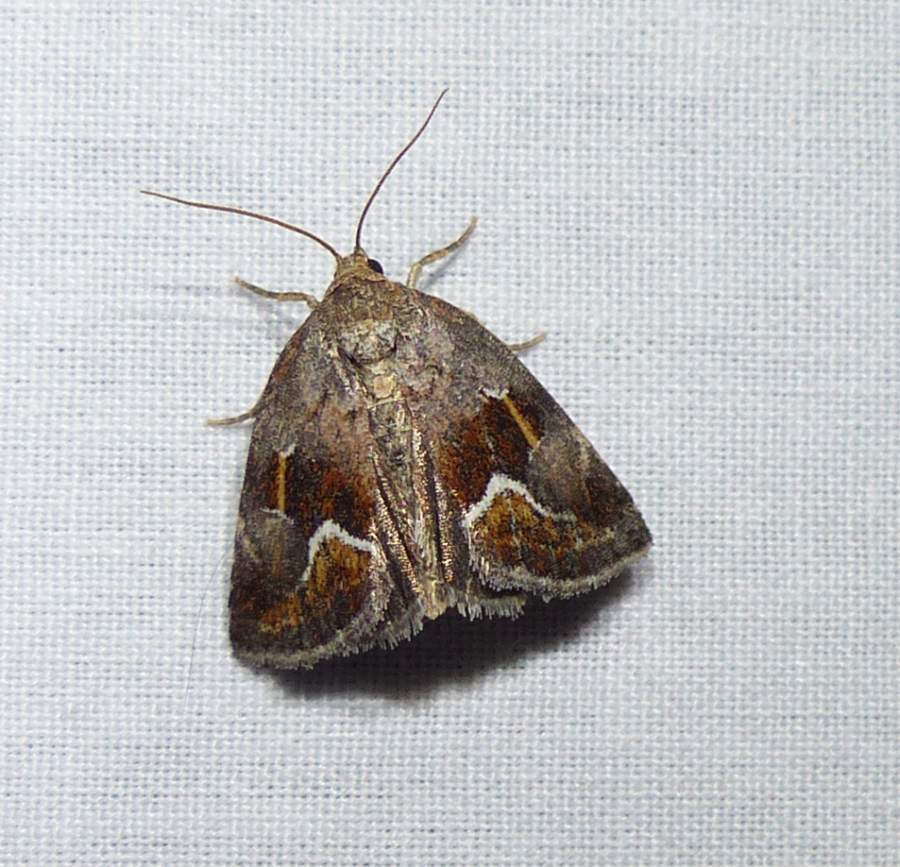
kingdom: Animalia
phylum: Arthropoda
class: Insecta
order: Lepidoptera
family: Noctuidae
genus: Deltote
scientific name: Deltote bellicula
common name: Bog glyph
